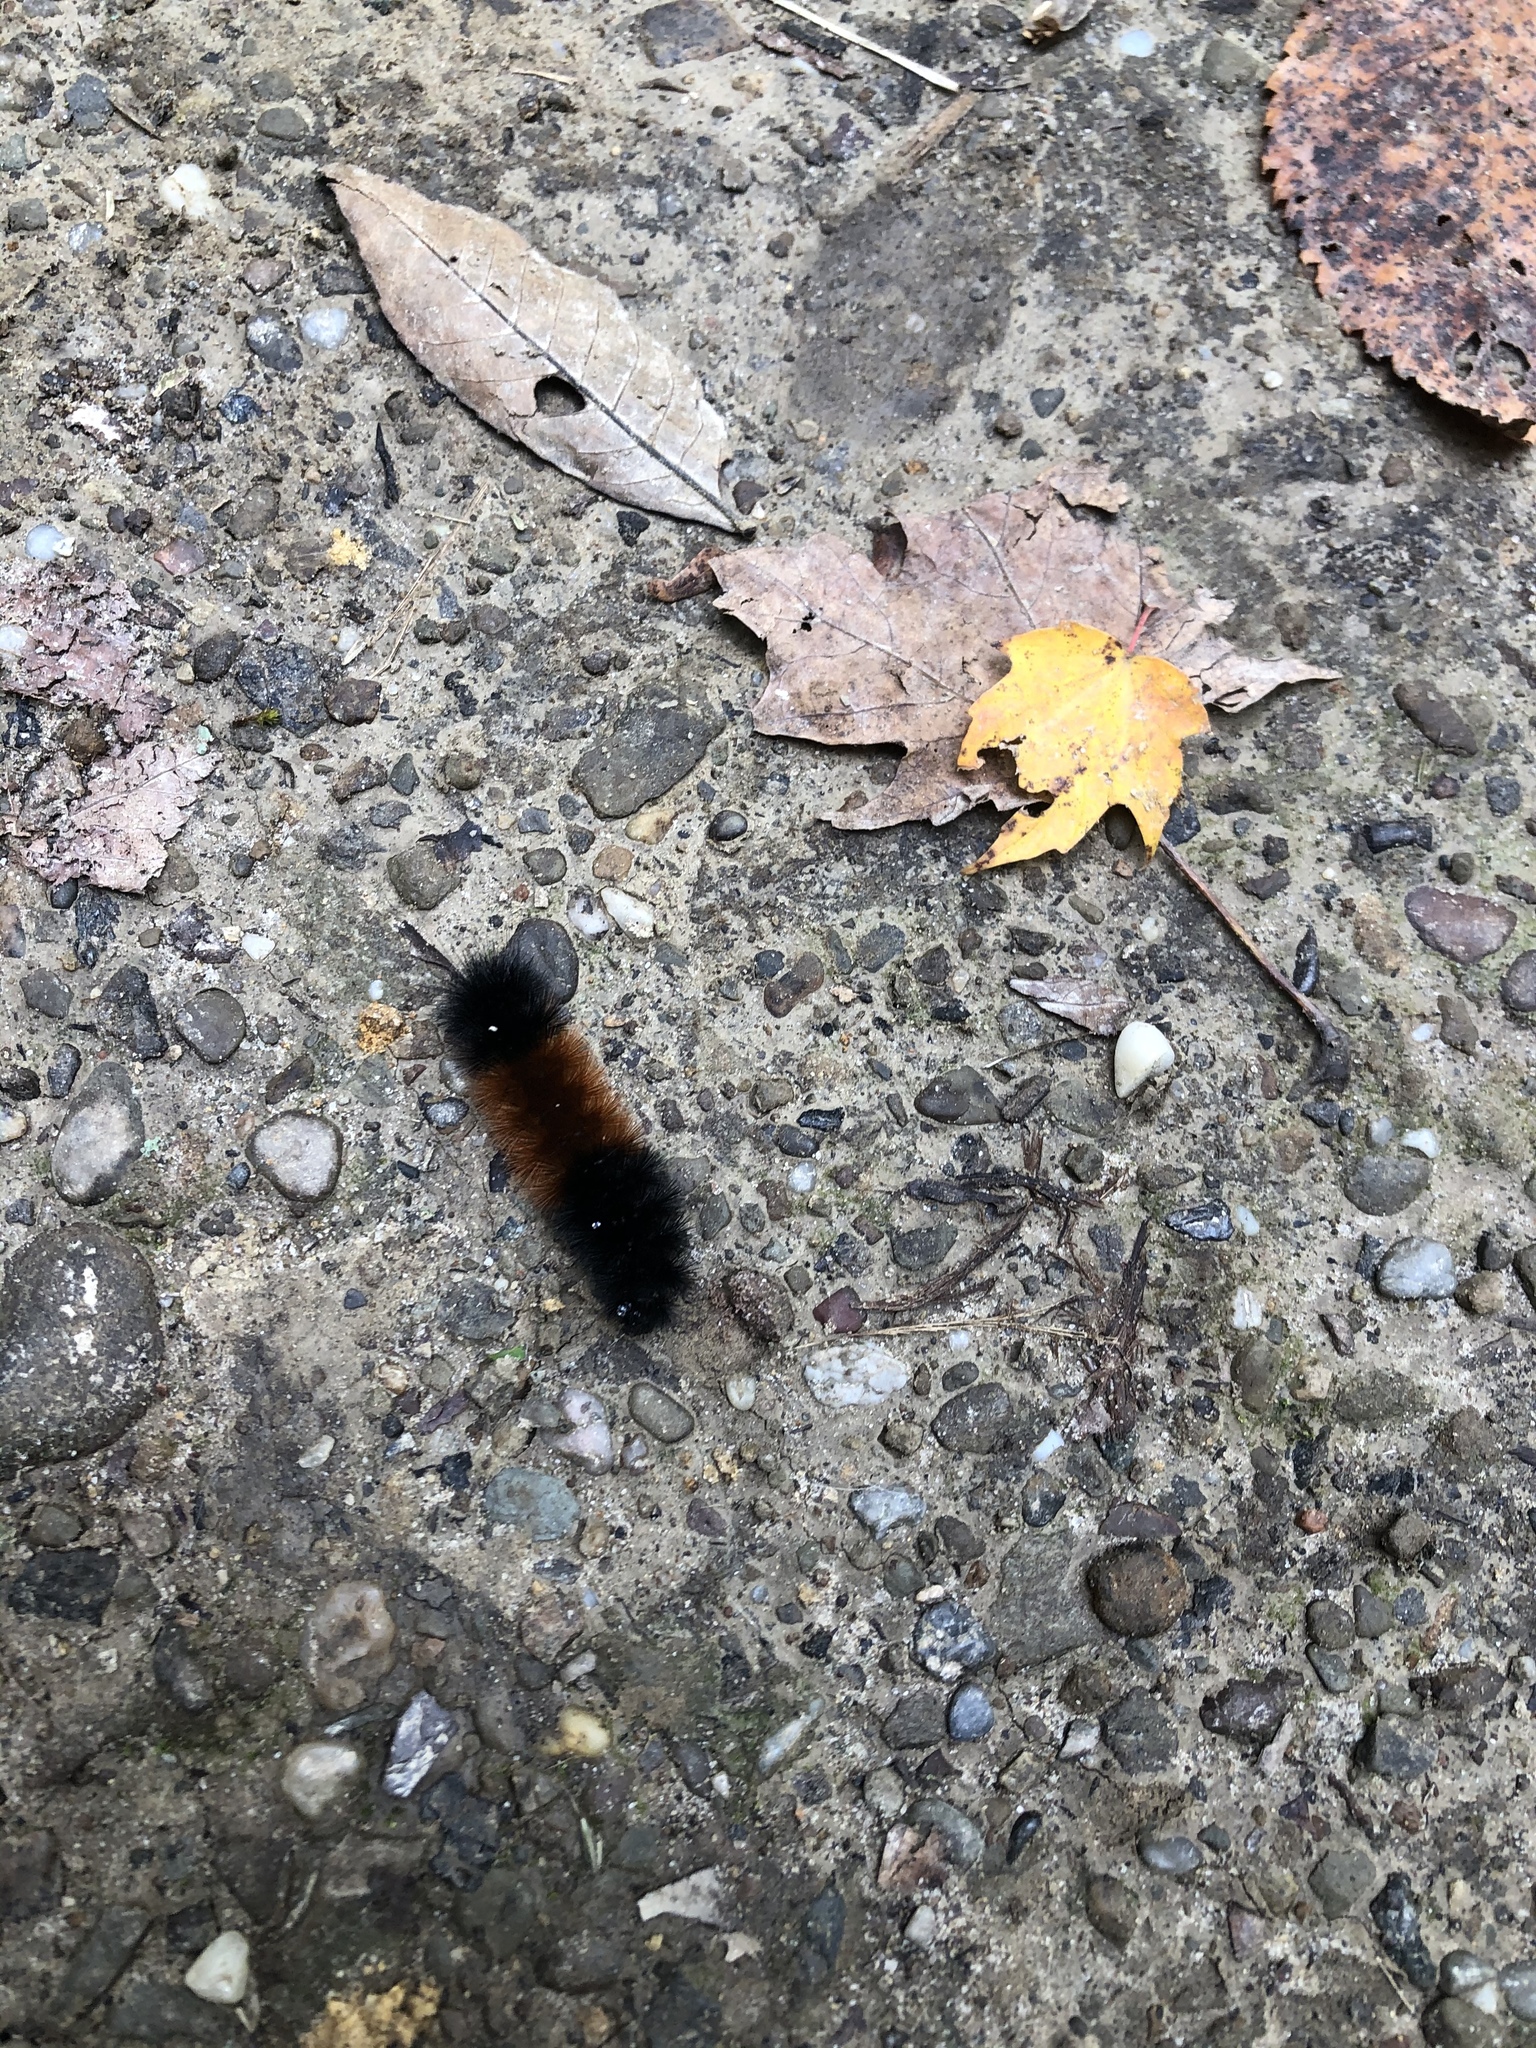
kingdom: Animalia
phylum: Arthropoda
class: Insecta
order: Lepidoptera
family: Erebidae
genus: Pyrrharctia
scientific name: Pyrrharctia isabella
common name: Isabella tiger moth
